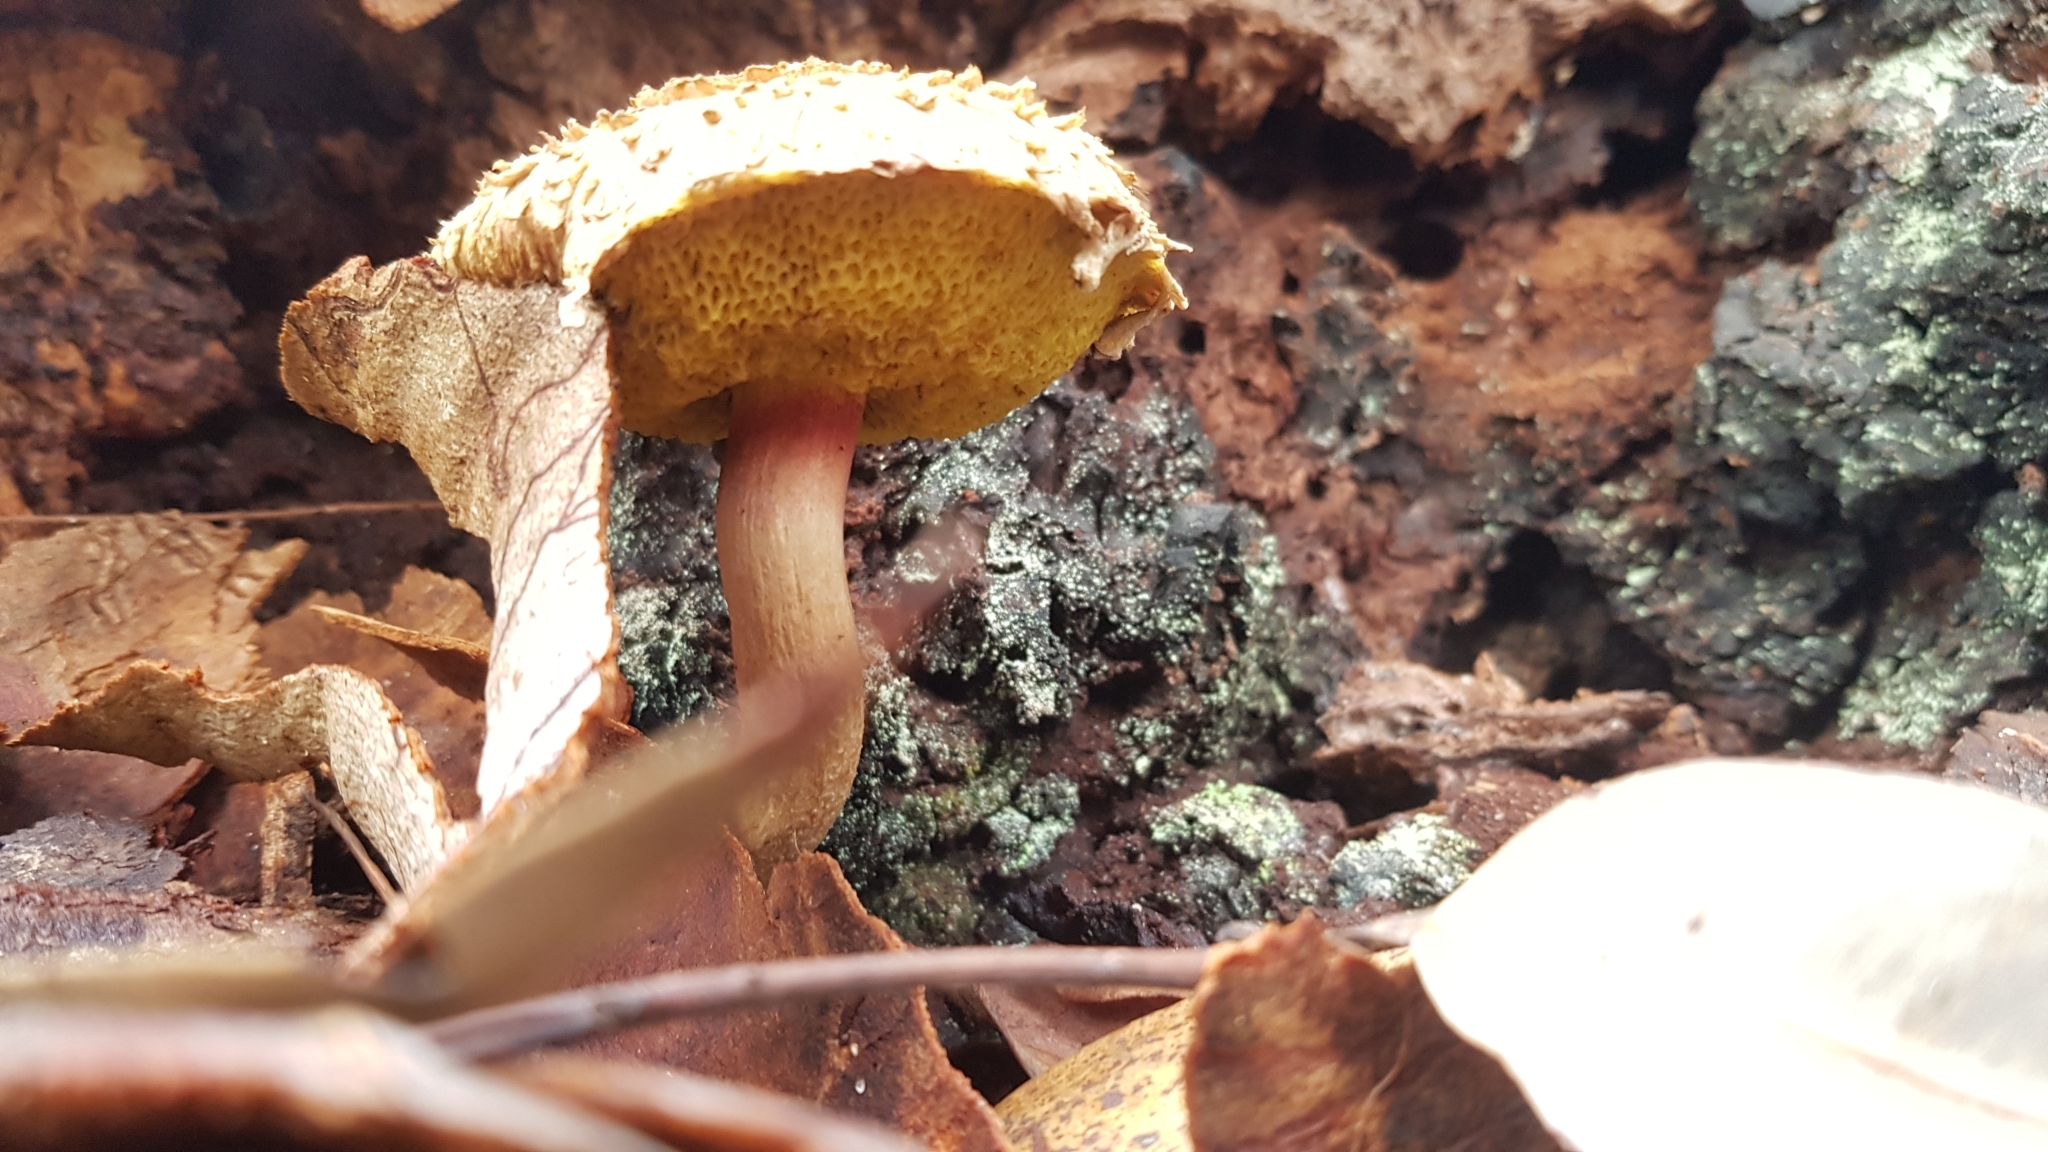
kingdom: Fungi
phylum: Basidiomycota
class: Agaricomycetes
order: Boletales
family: Boletaceae
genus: Boletellus
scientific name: Boletellus deceptivus
